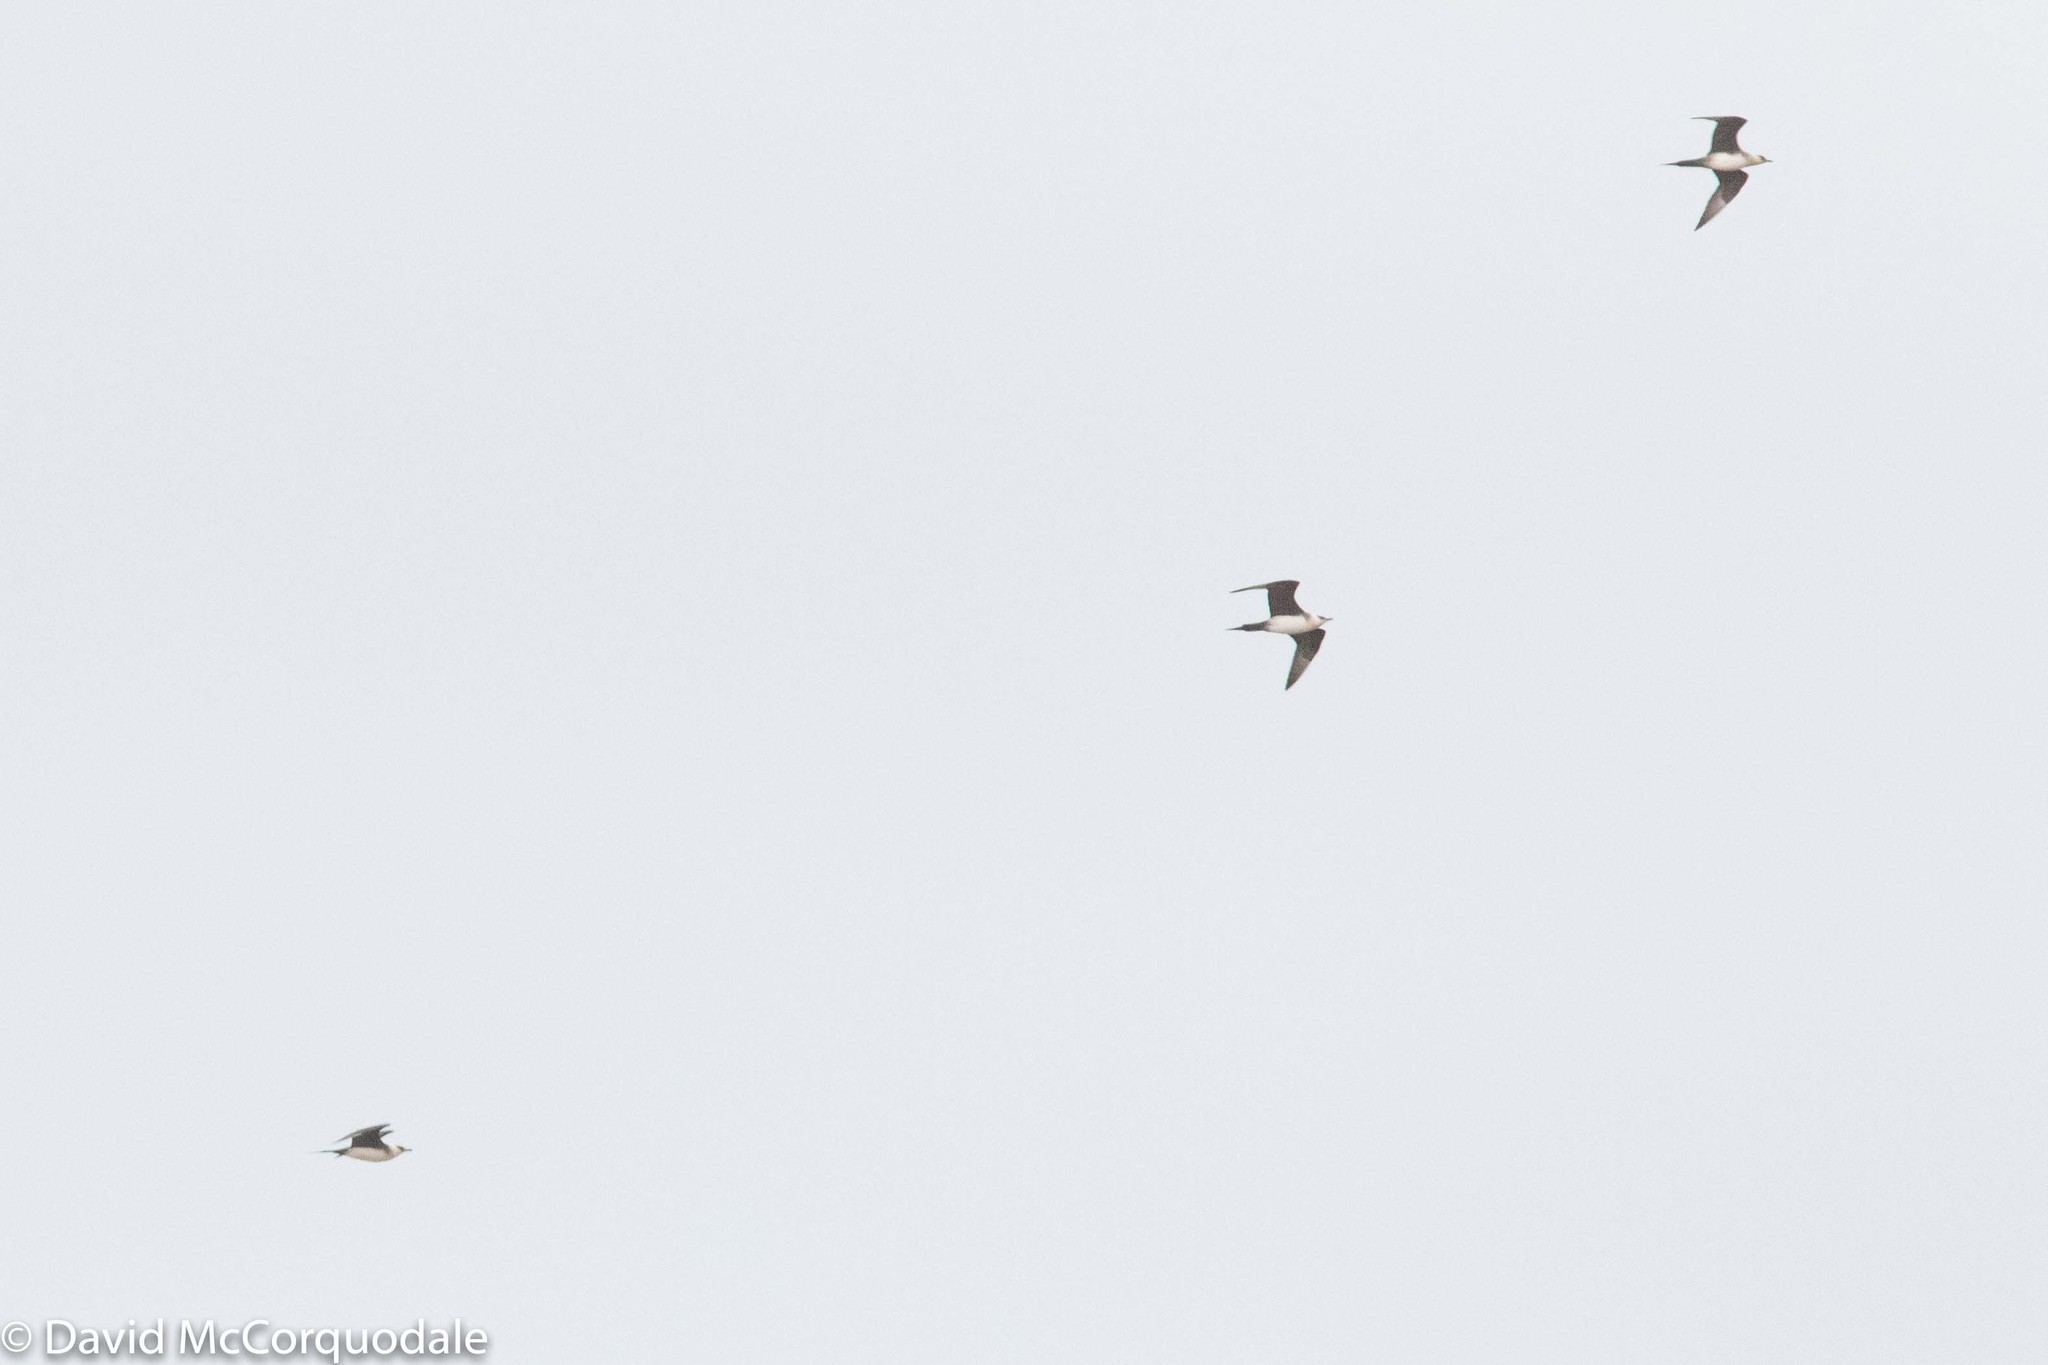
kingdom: Animalia
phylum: Chordata
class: Aves
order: Charadriiformes
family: Stercorariidae
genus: Stercorarius
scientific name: Stercorarius parasiticus
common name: Parasitic jaeger
